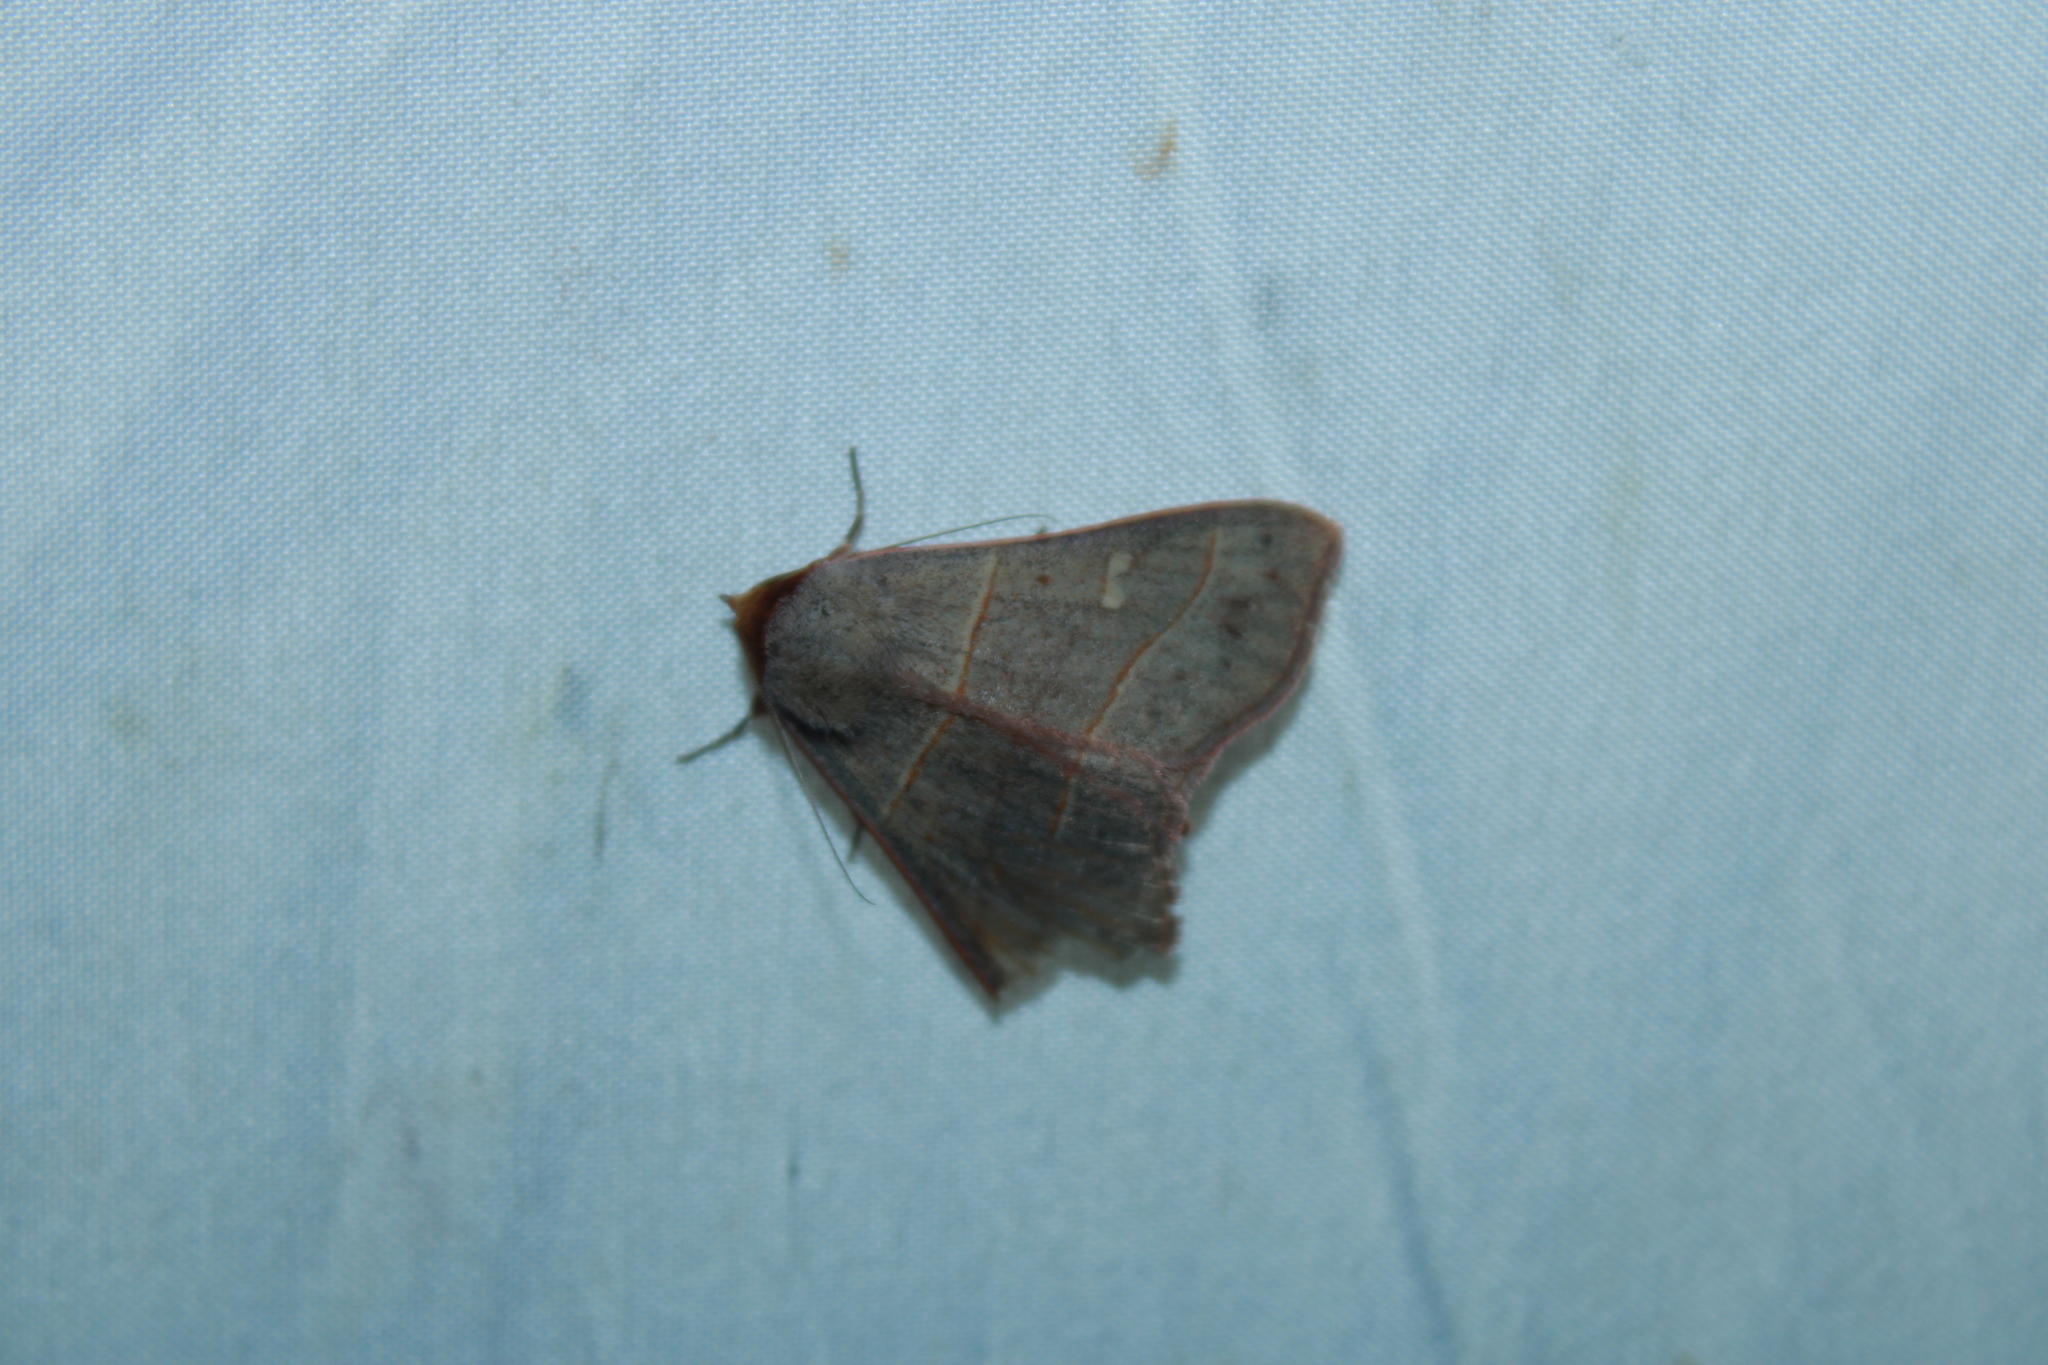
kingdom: Animalia
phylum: Arthropoda
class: Insecta
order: Lepidoptera
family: Erebidae
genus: Panopoda
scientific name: Panopoda rufimargo
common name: Red-lined panopoda moth
